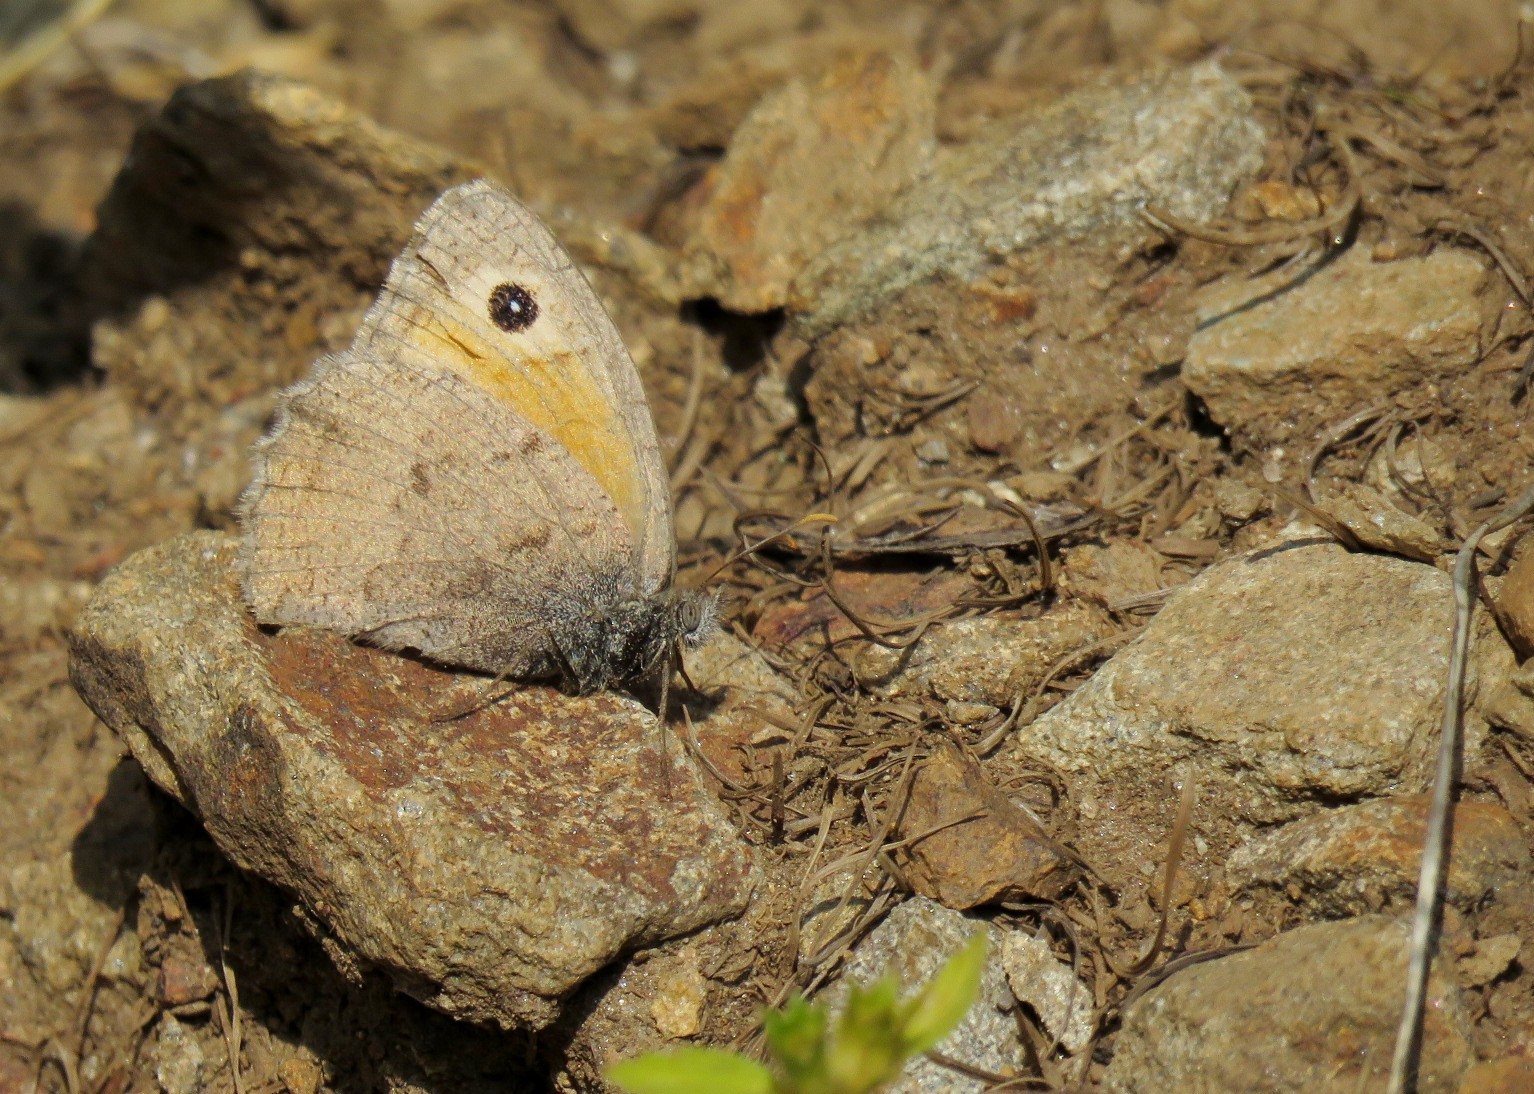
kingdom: Animalia
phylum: Arthropoda
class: Insecta
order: Lepidoptera
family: Nymphalidae
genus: Hyponephele
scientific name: Hyponephele lycaon
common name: Dusky meadow brown
